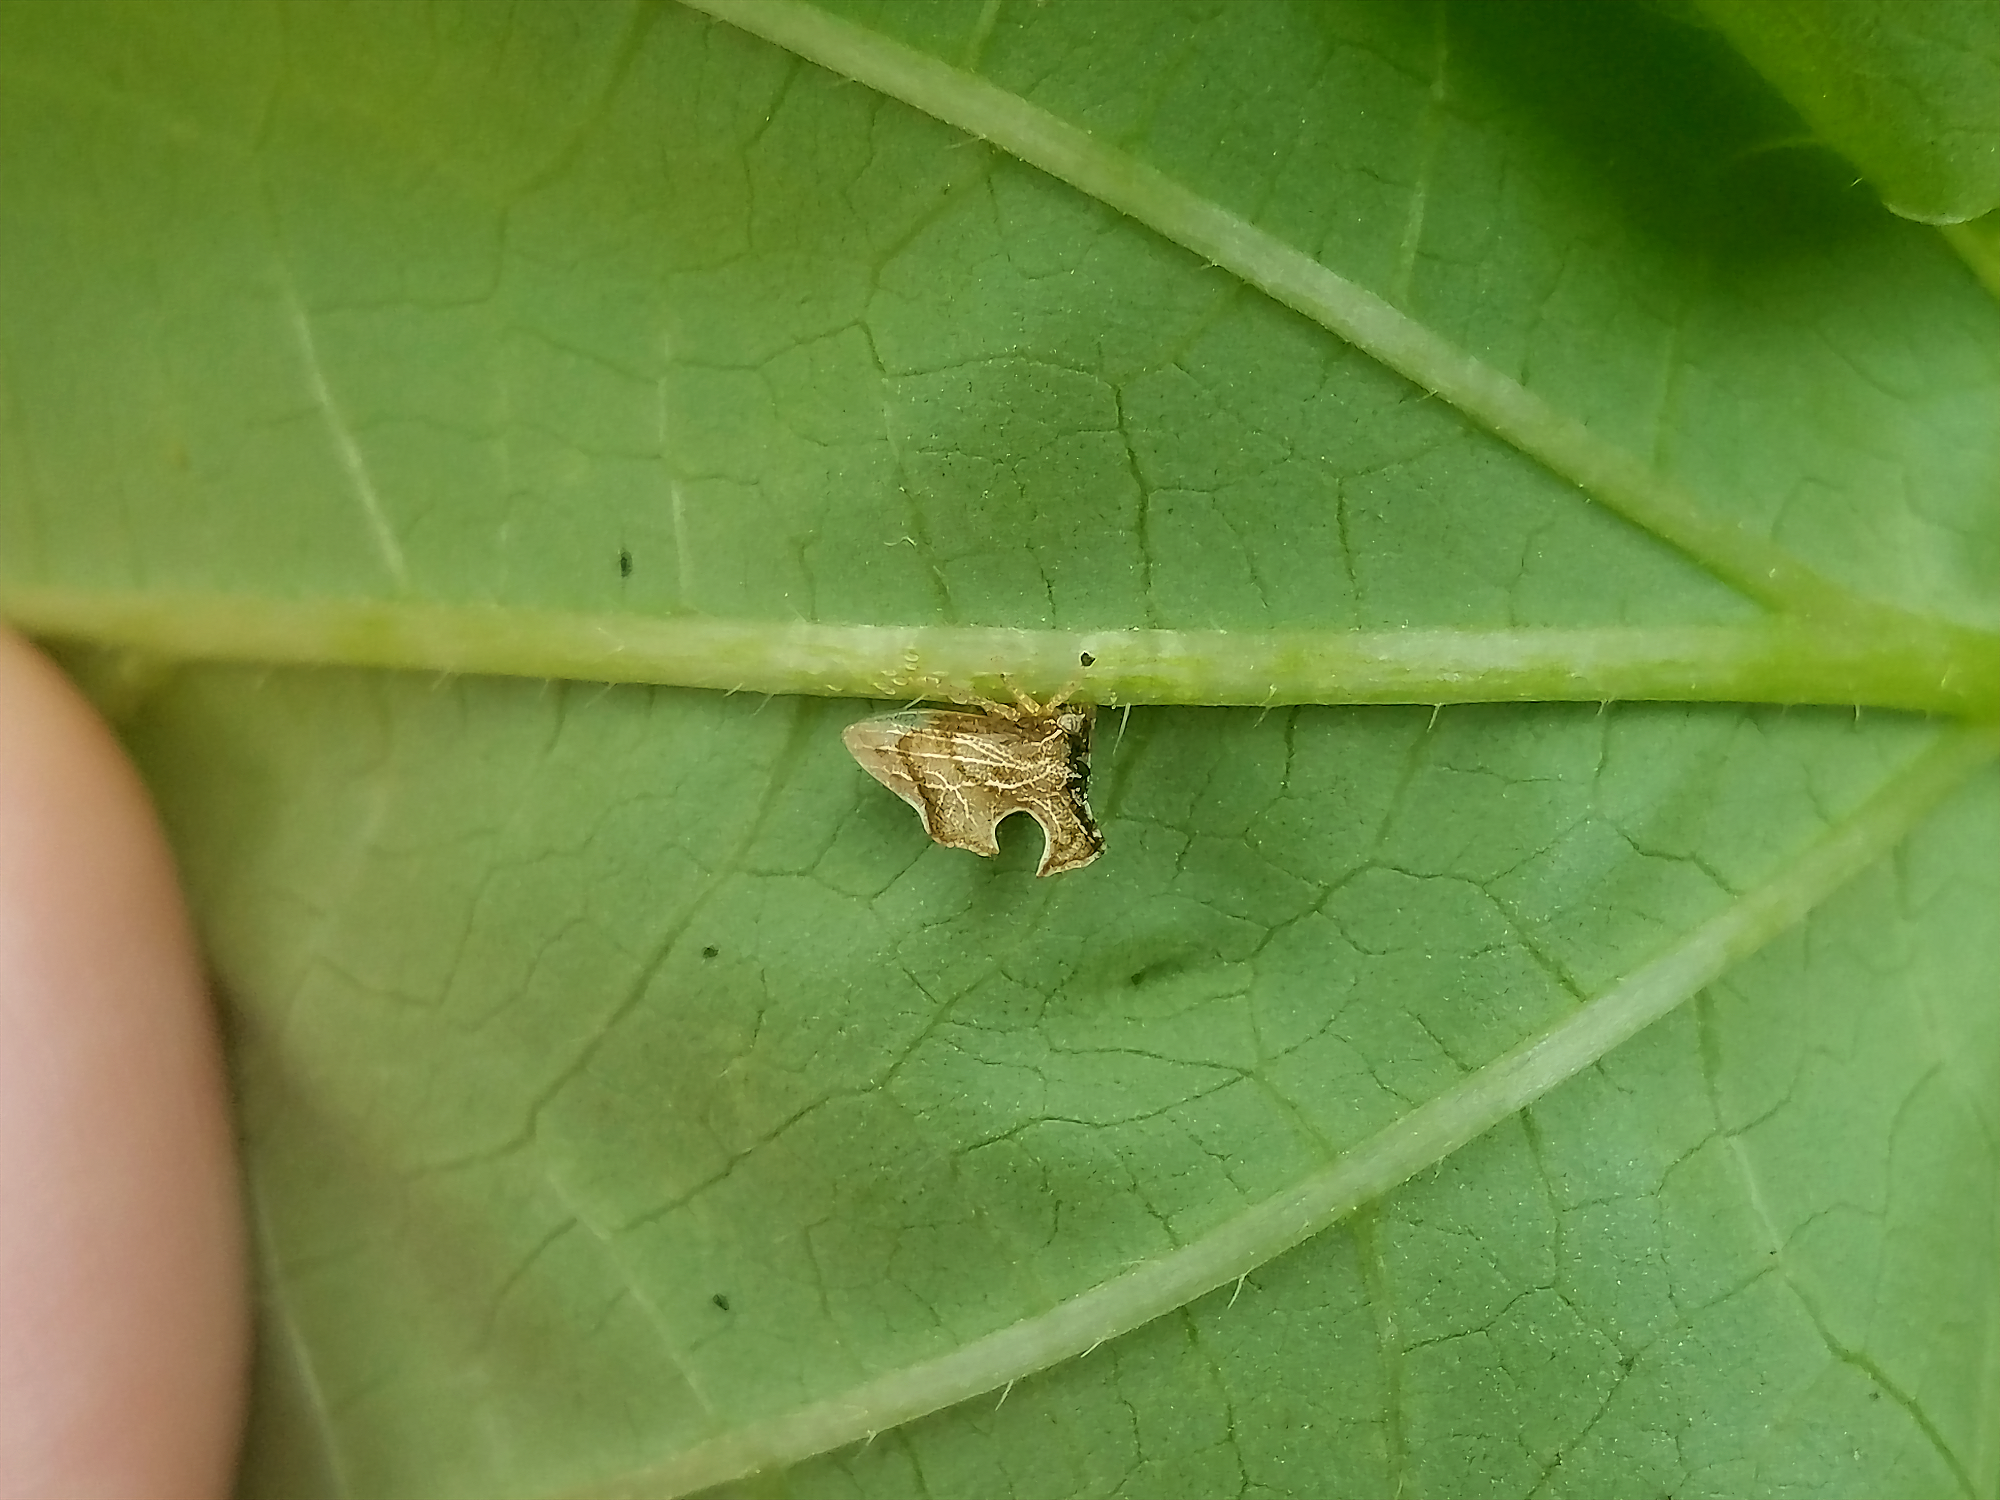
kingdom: Animalia
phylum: Arthropoda
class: Insecta
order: Hemiptera
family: Membracidae
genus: Entylia
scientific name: Entylia carinata
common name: Keeled treehopper
